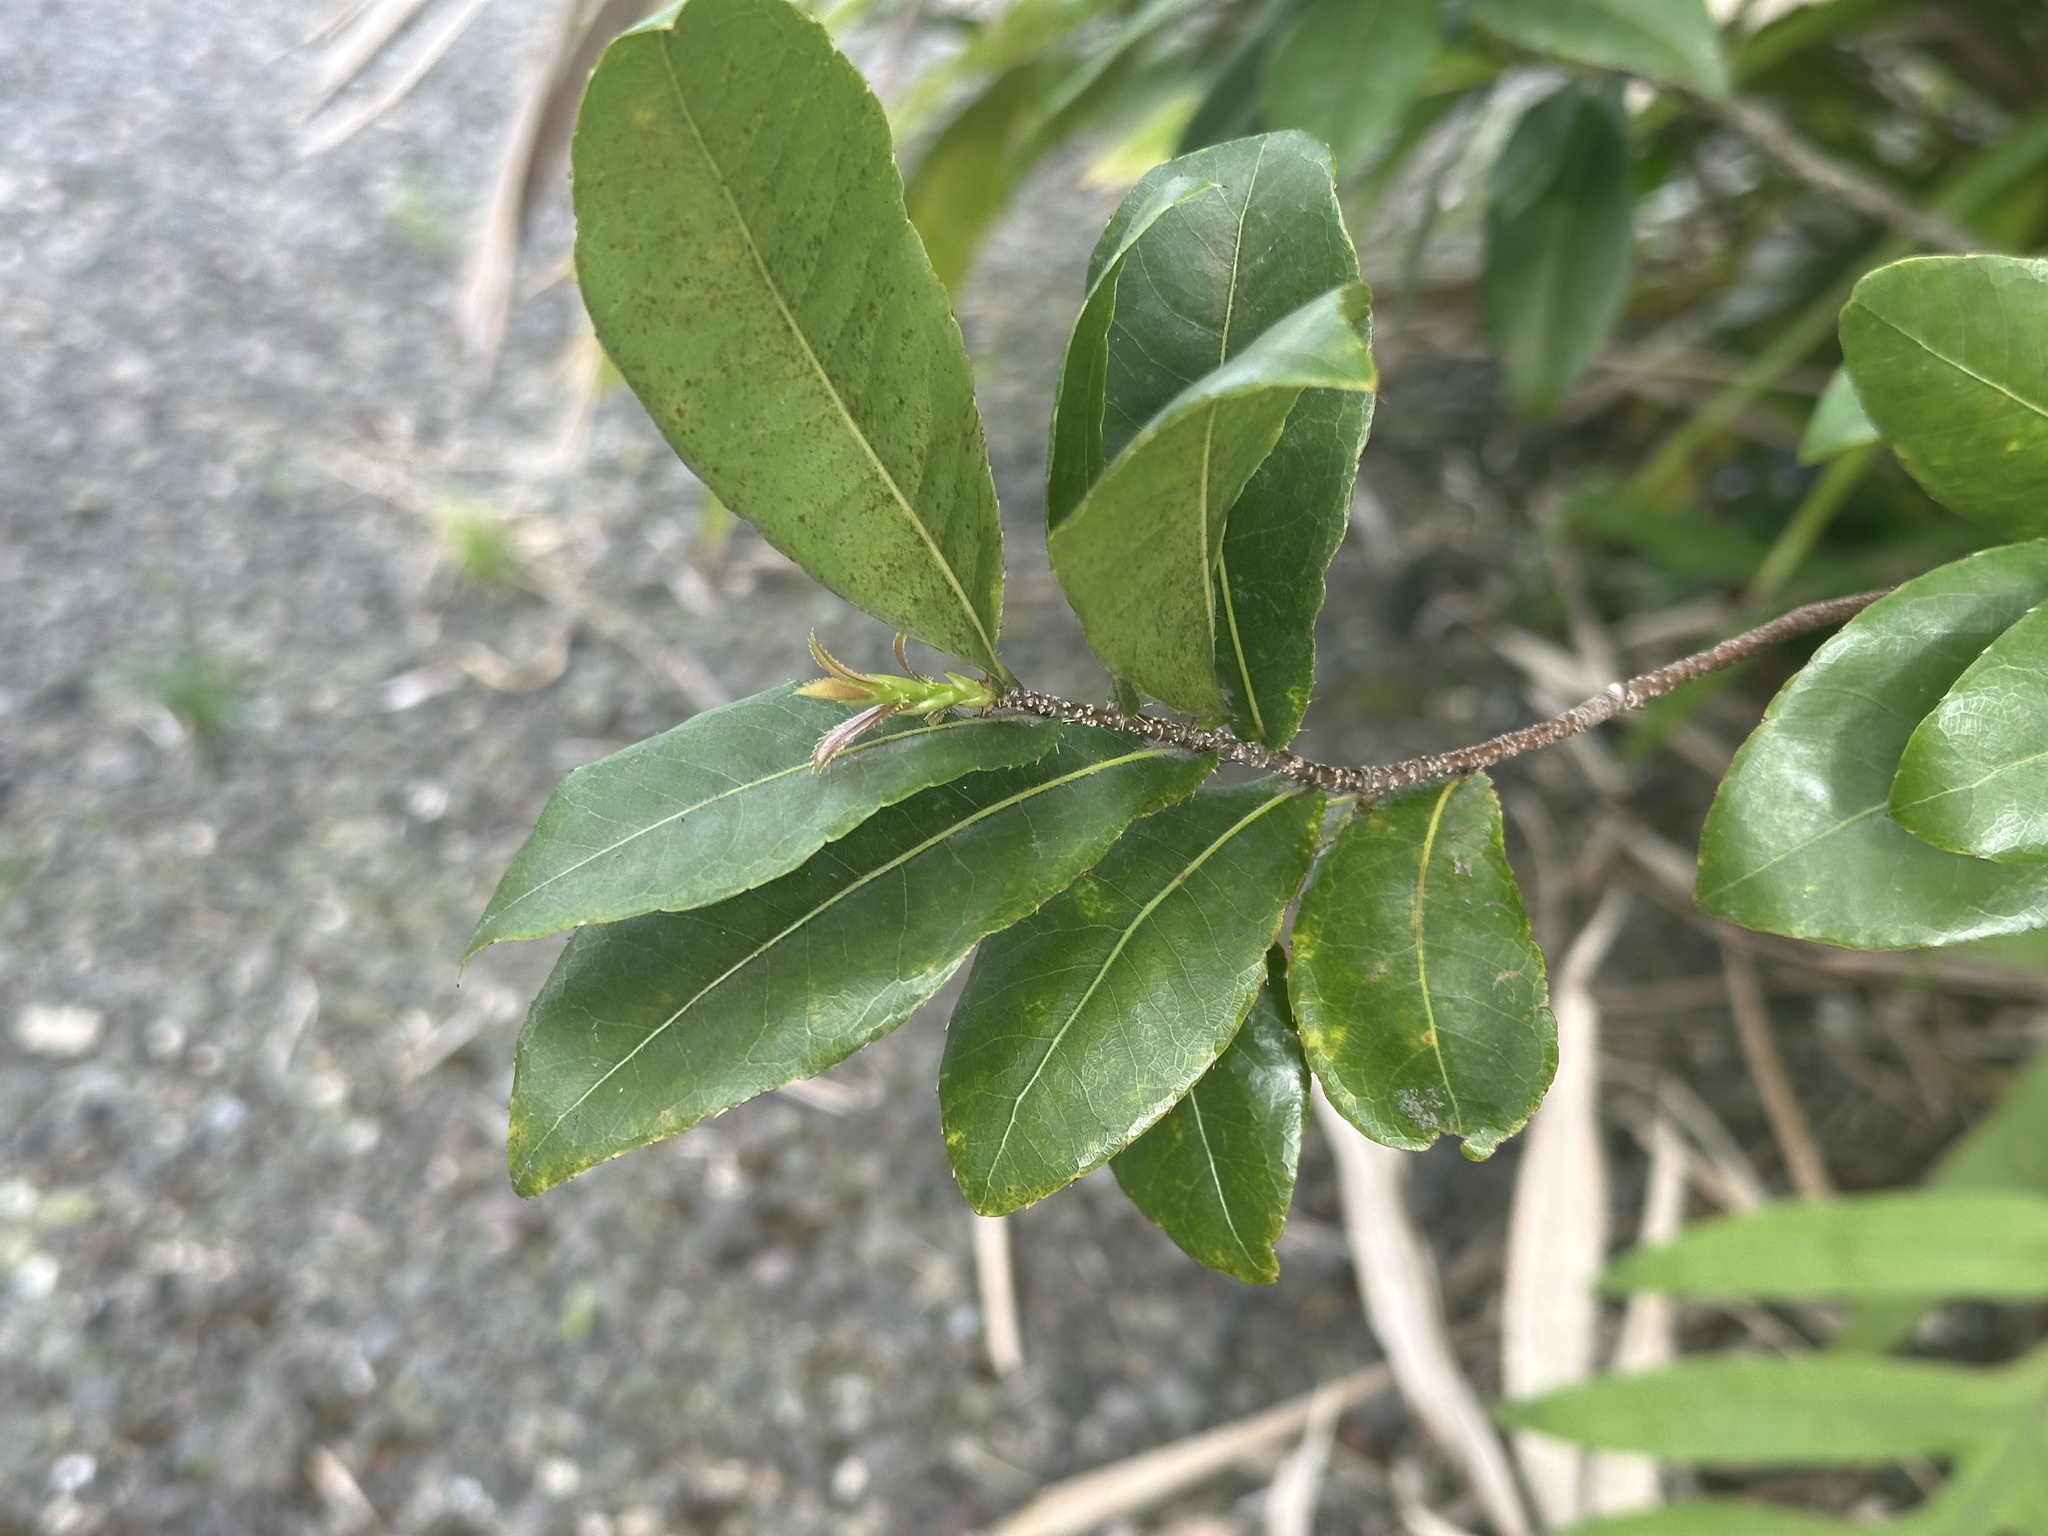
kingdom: Plantae
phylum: Tracheophyta
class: Magnoliopsida
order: Malpighiales
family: Ochnaceae
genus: Ochna
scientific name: Ochna thomasiana
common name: Thomas' bird's-eye bush
